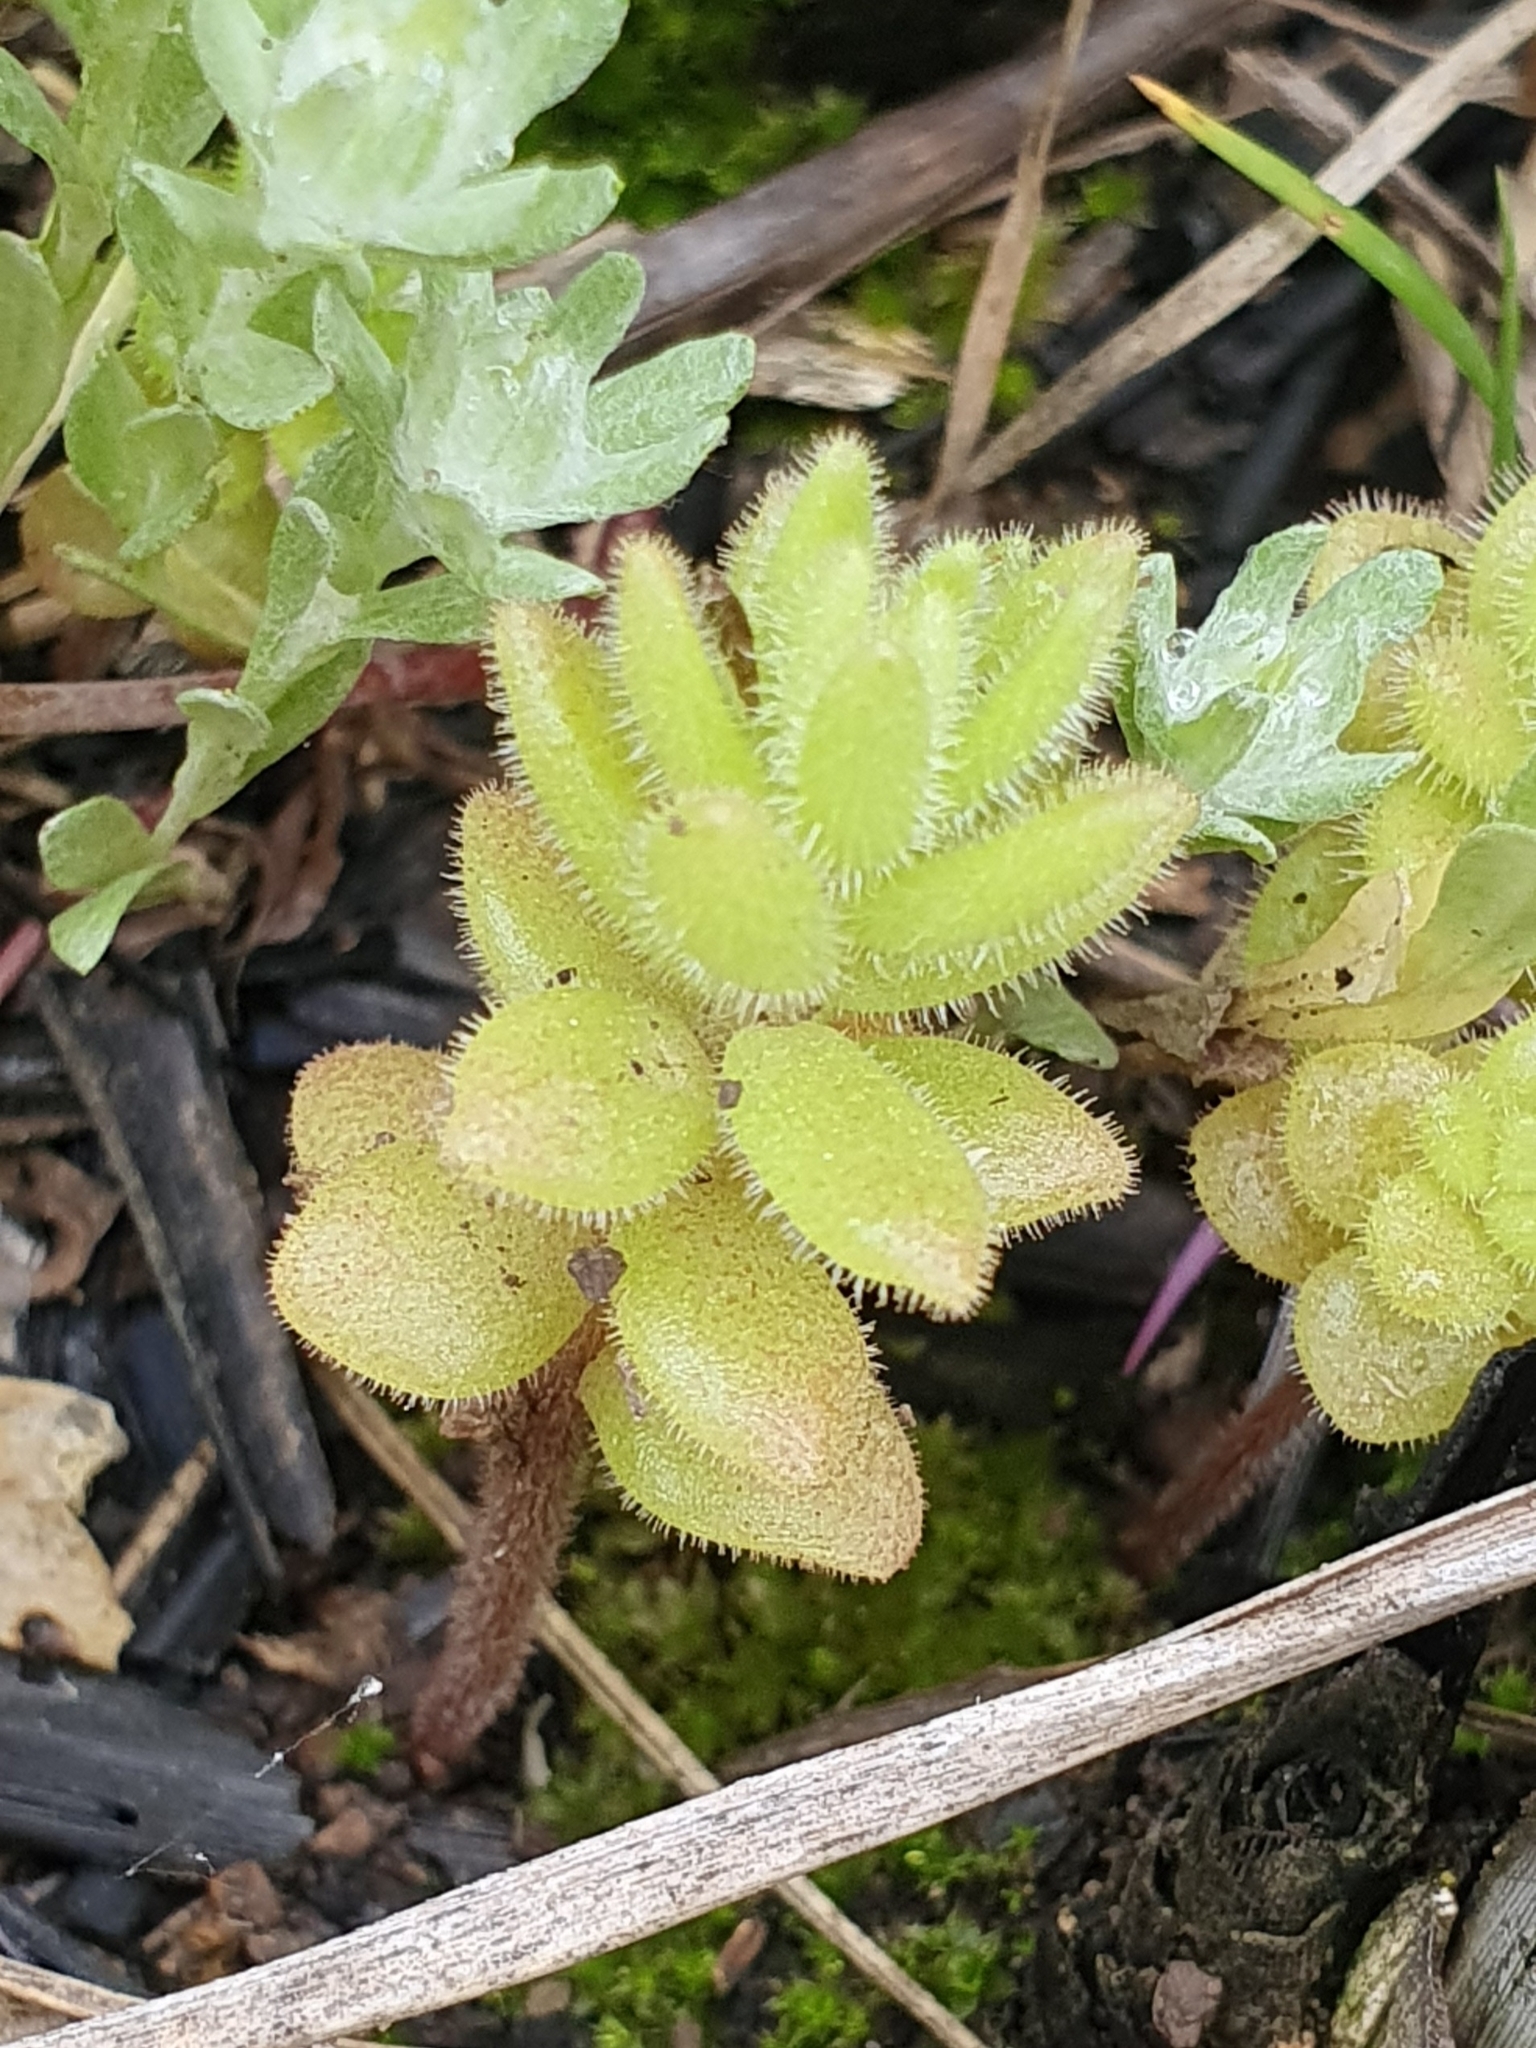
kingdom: Plantae
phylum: Tracheophyta
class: Magnoliopsida
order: Saxifragales
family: Crassulaceae
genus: Sedum
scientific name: Sedum pubescens
